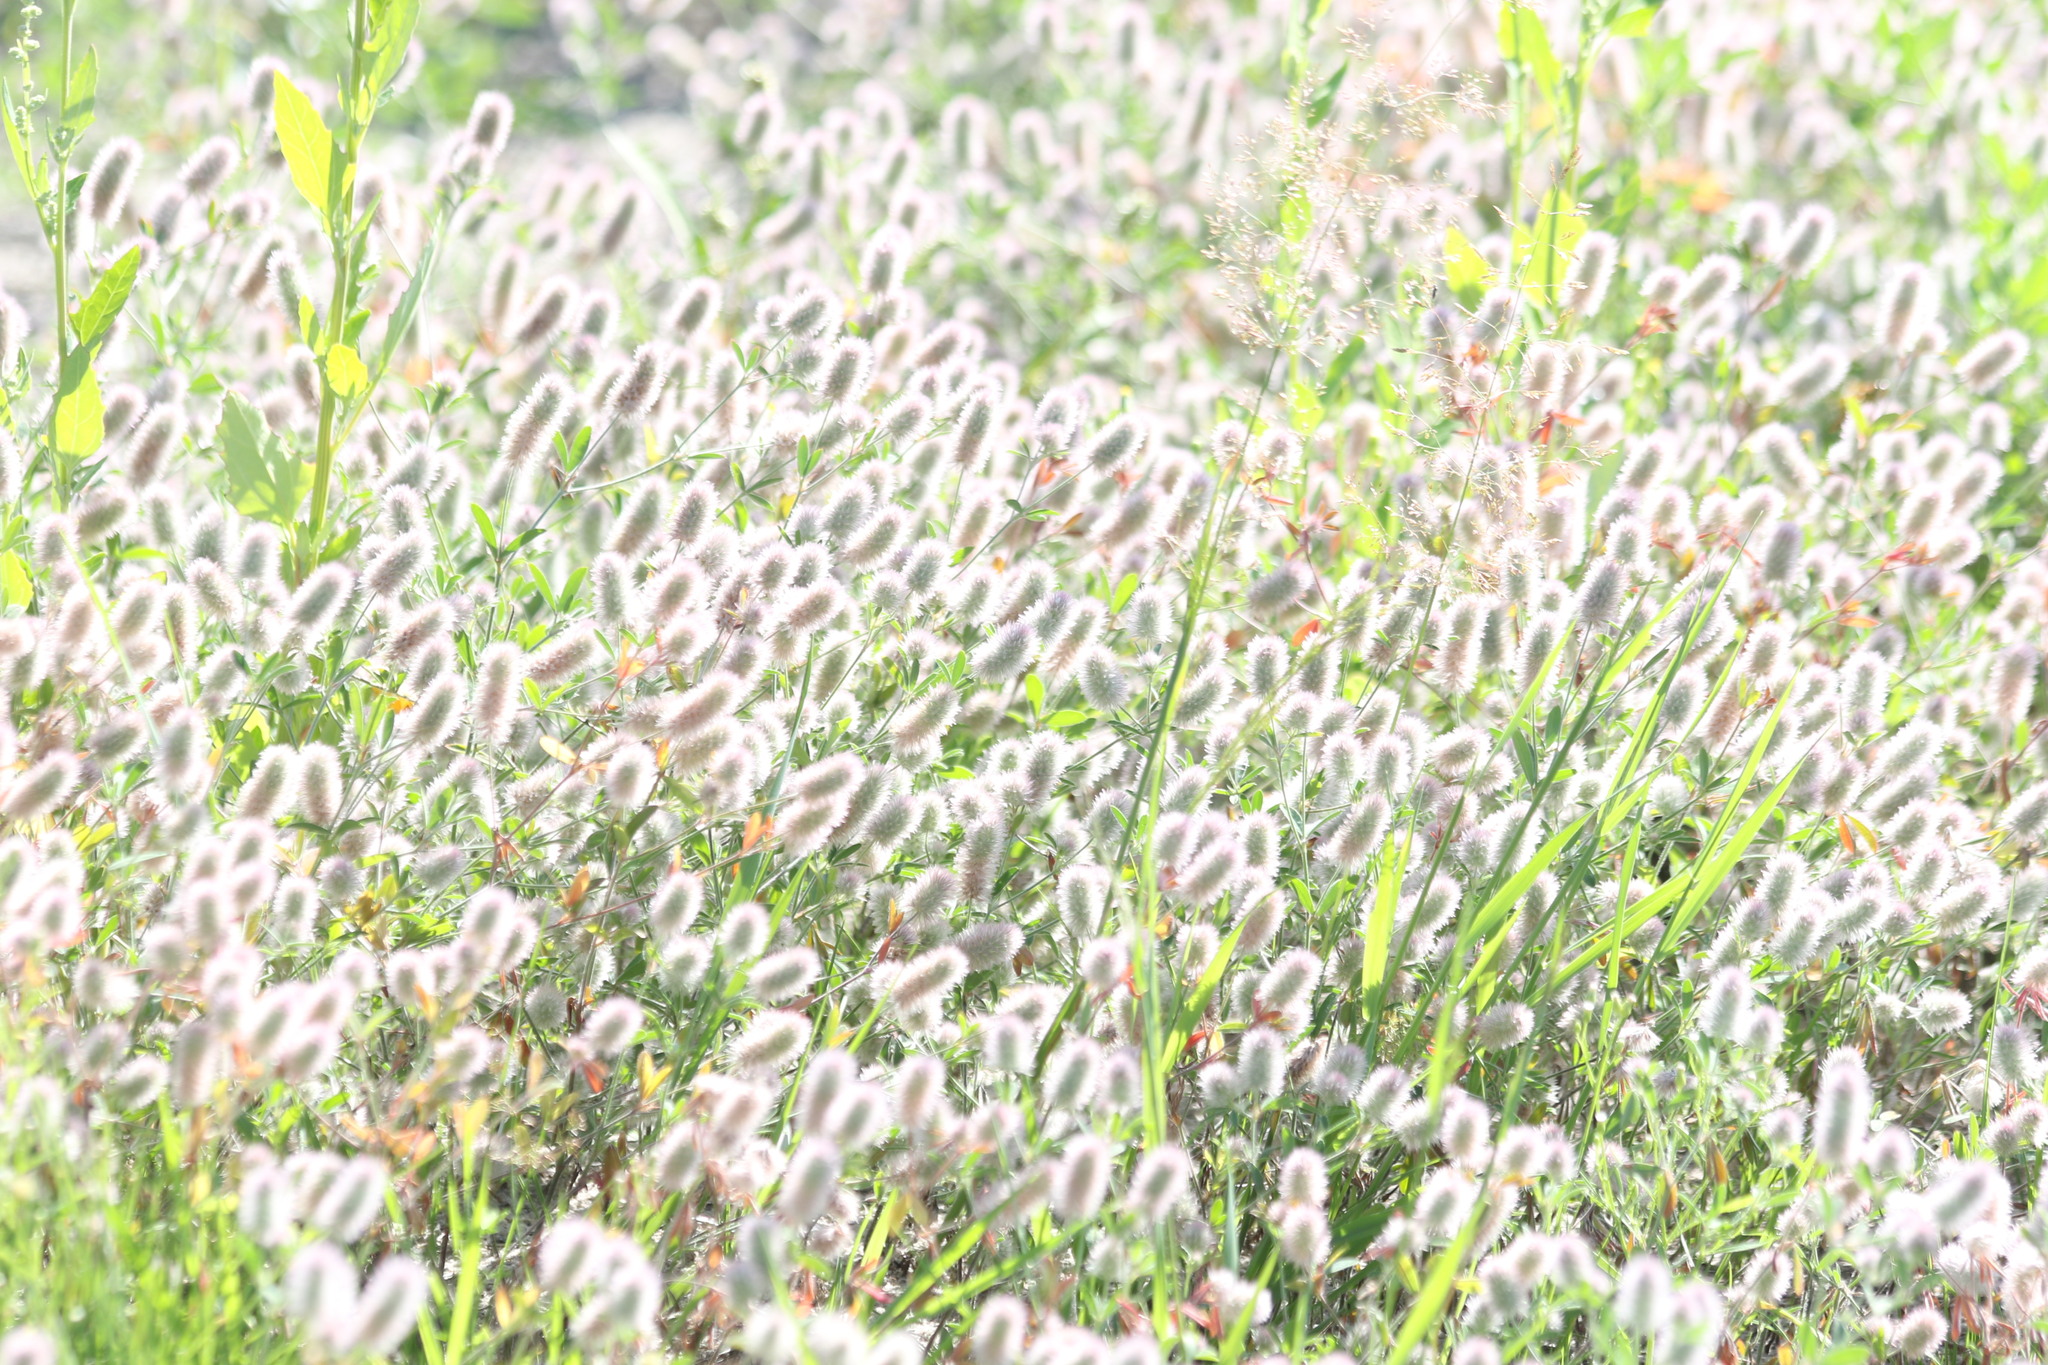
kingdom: Plantae
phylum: Tracheophyta
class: Magnoliopsida
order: Fabales
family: Fabaceae
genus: Trifolium
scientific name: Trifolium arvense
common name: Hare's-foot clover
